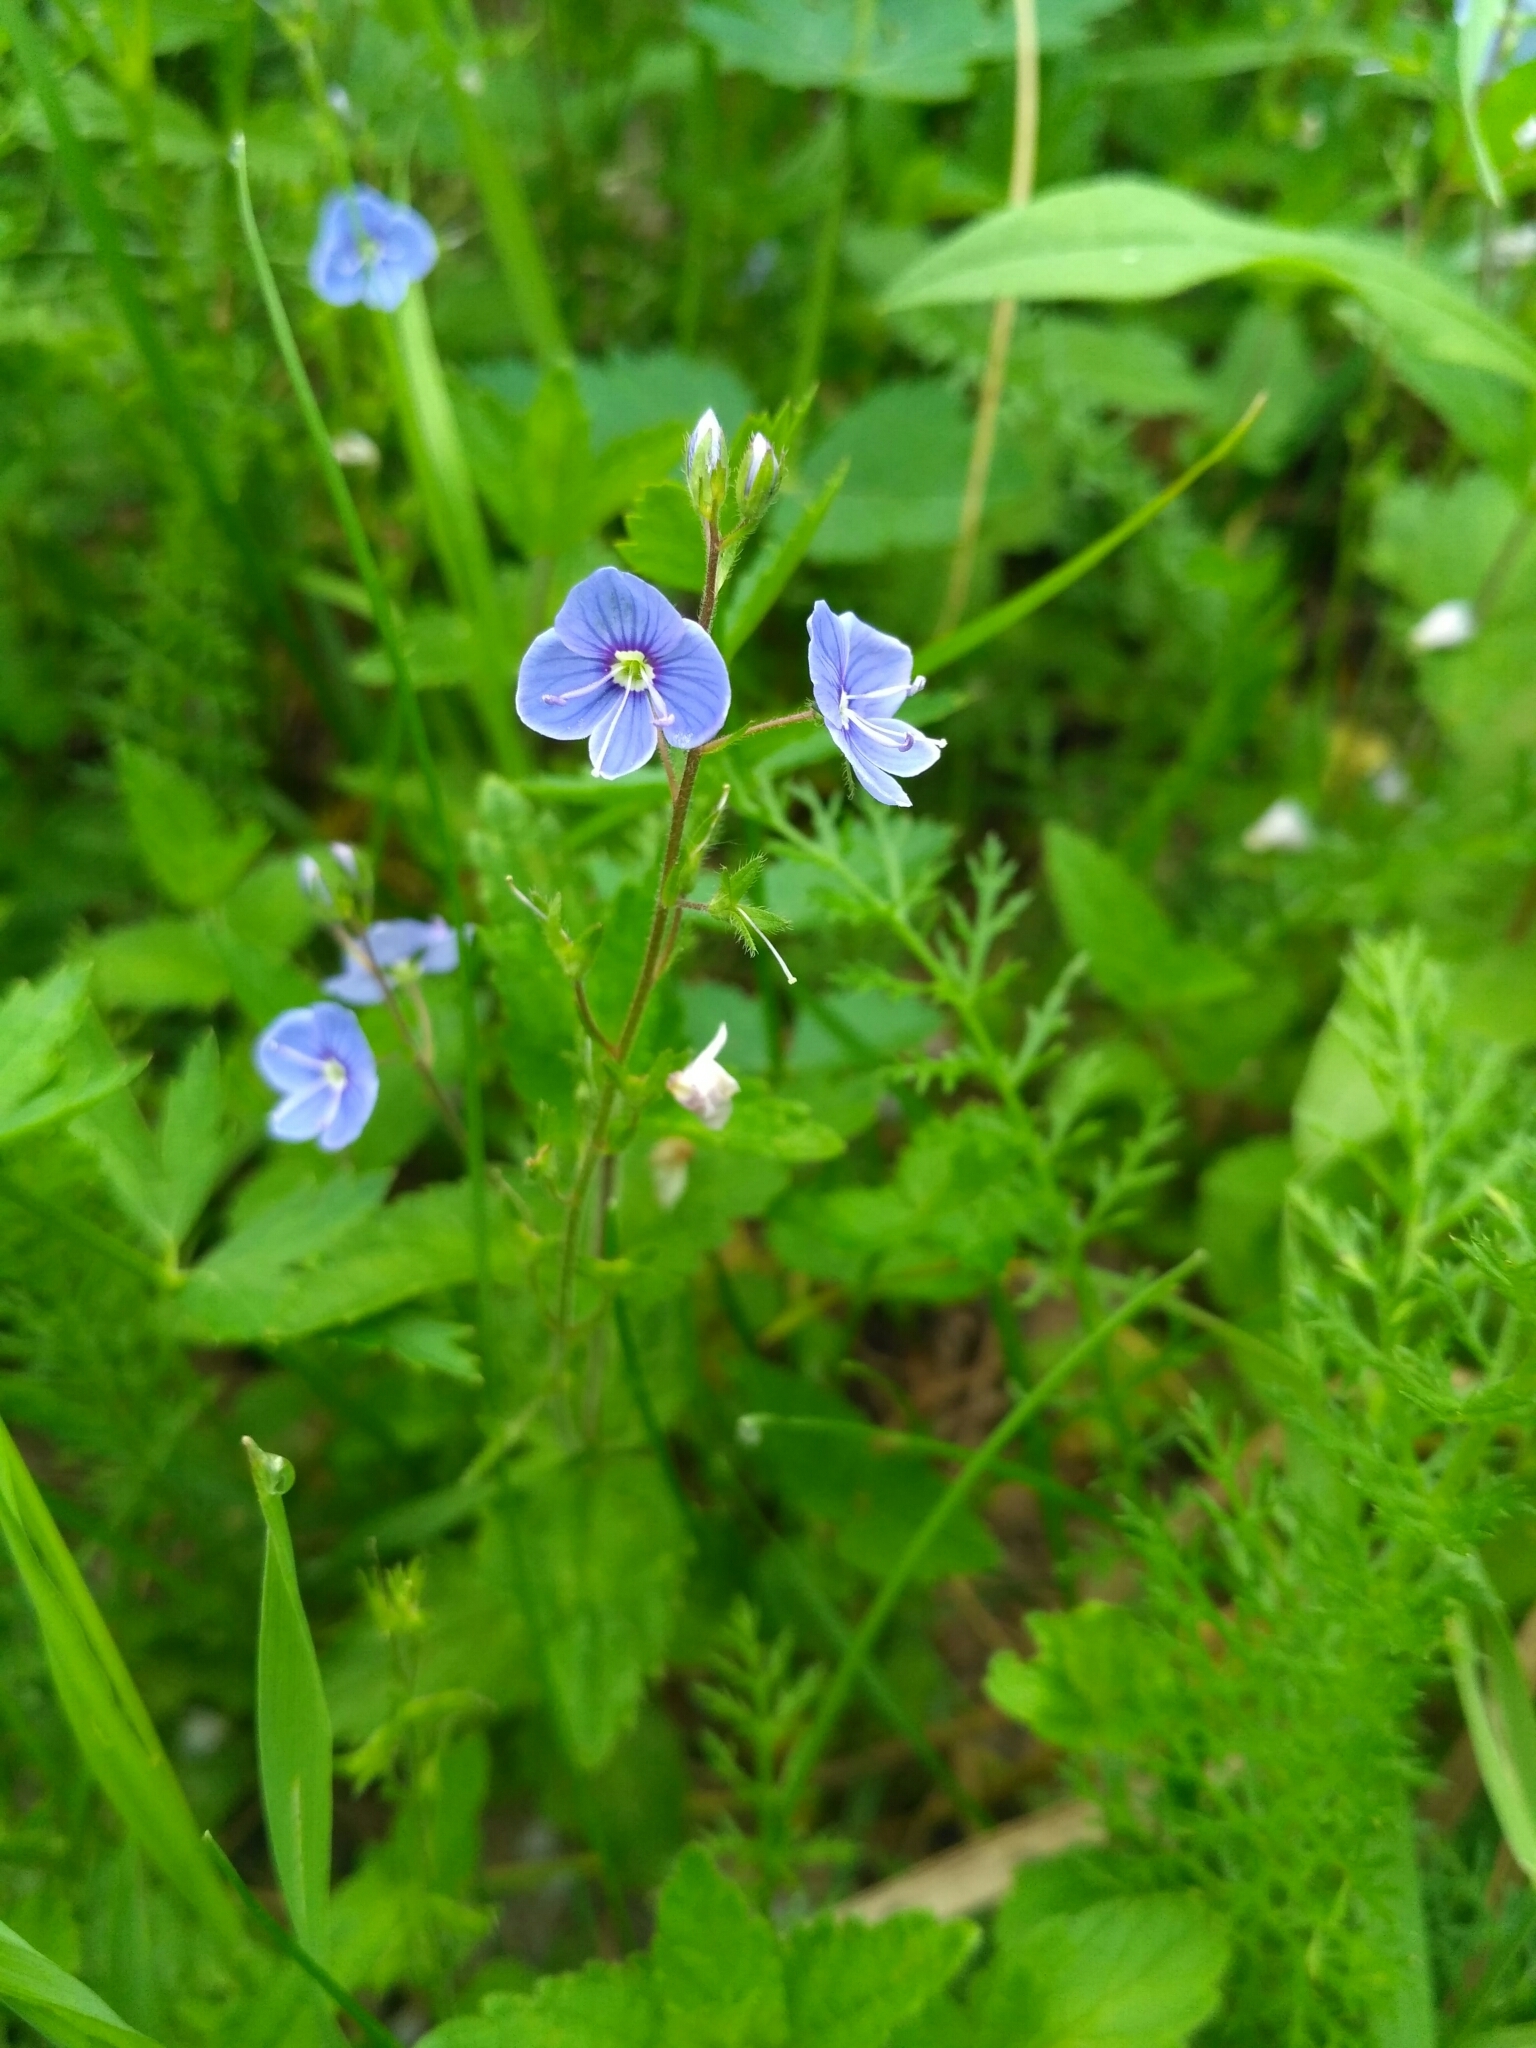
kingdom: Plantae
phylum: Tracheophyta
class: Magnoliopsida
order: Lamiales
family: Plantaginaceae
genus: Veronica
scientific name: Veronica chamaedrys
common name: Germander speedwell
